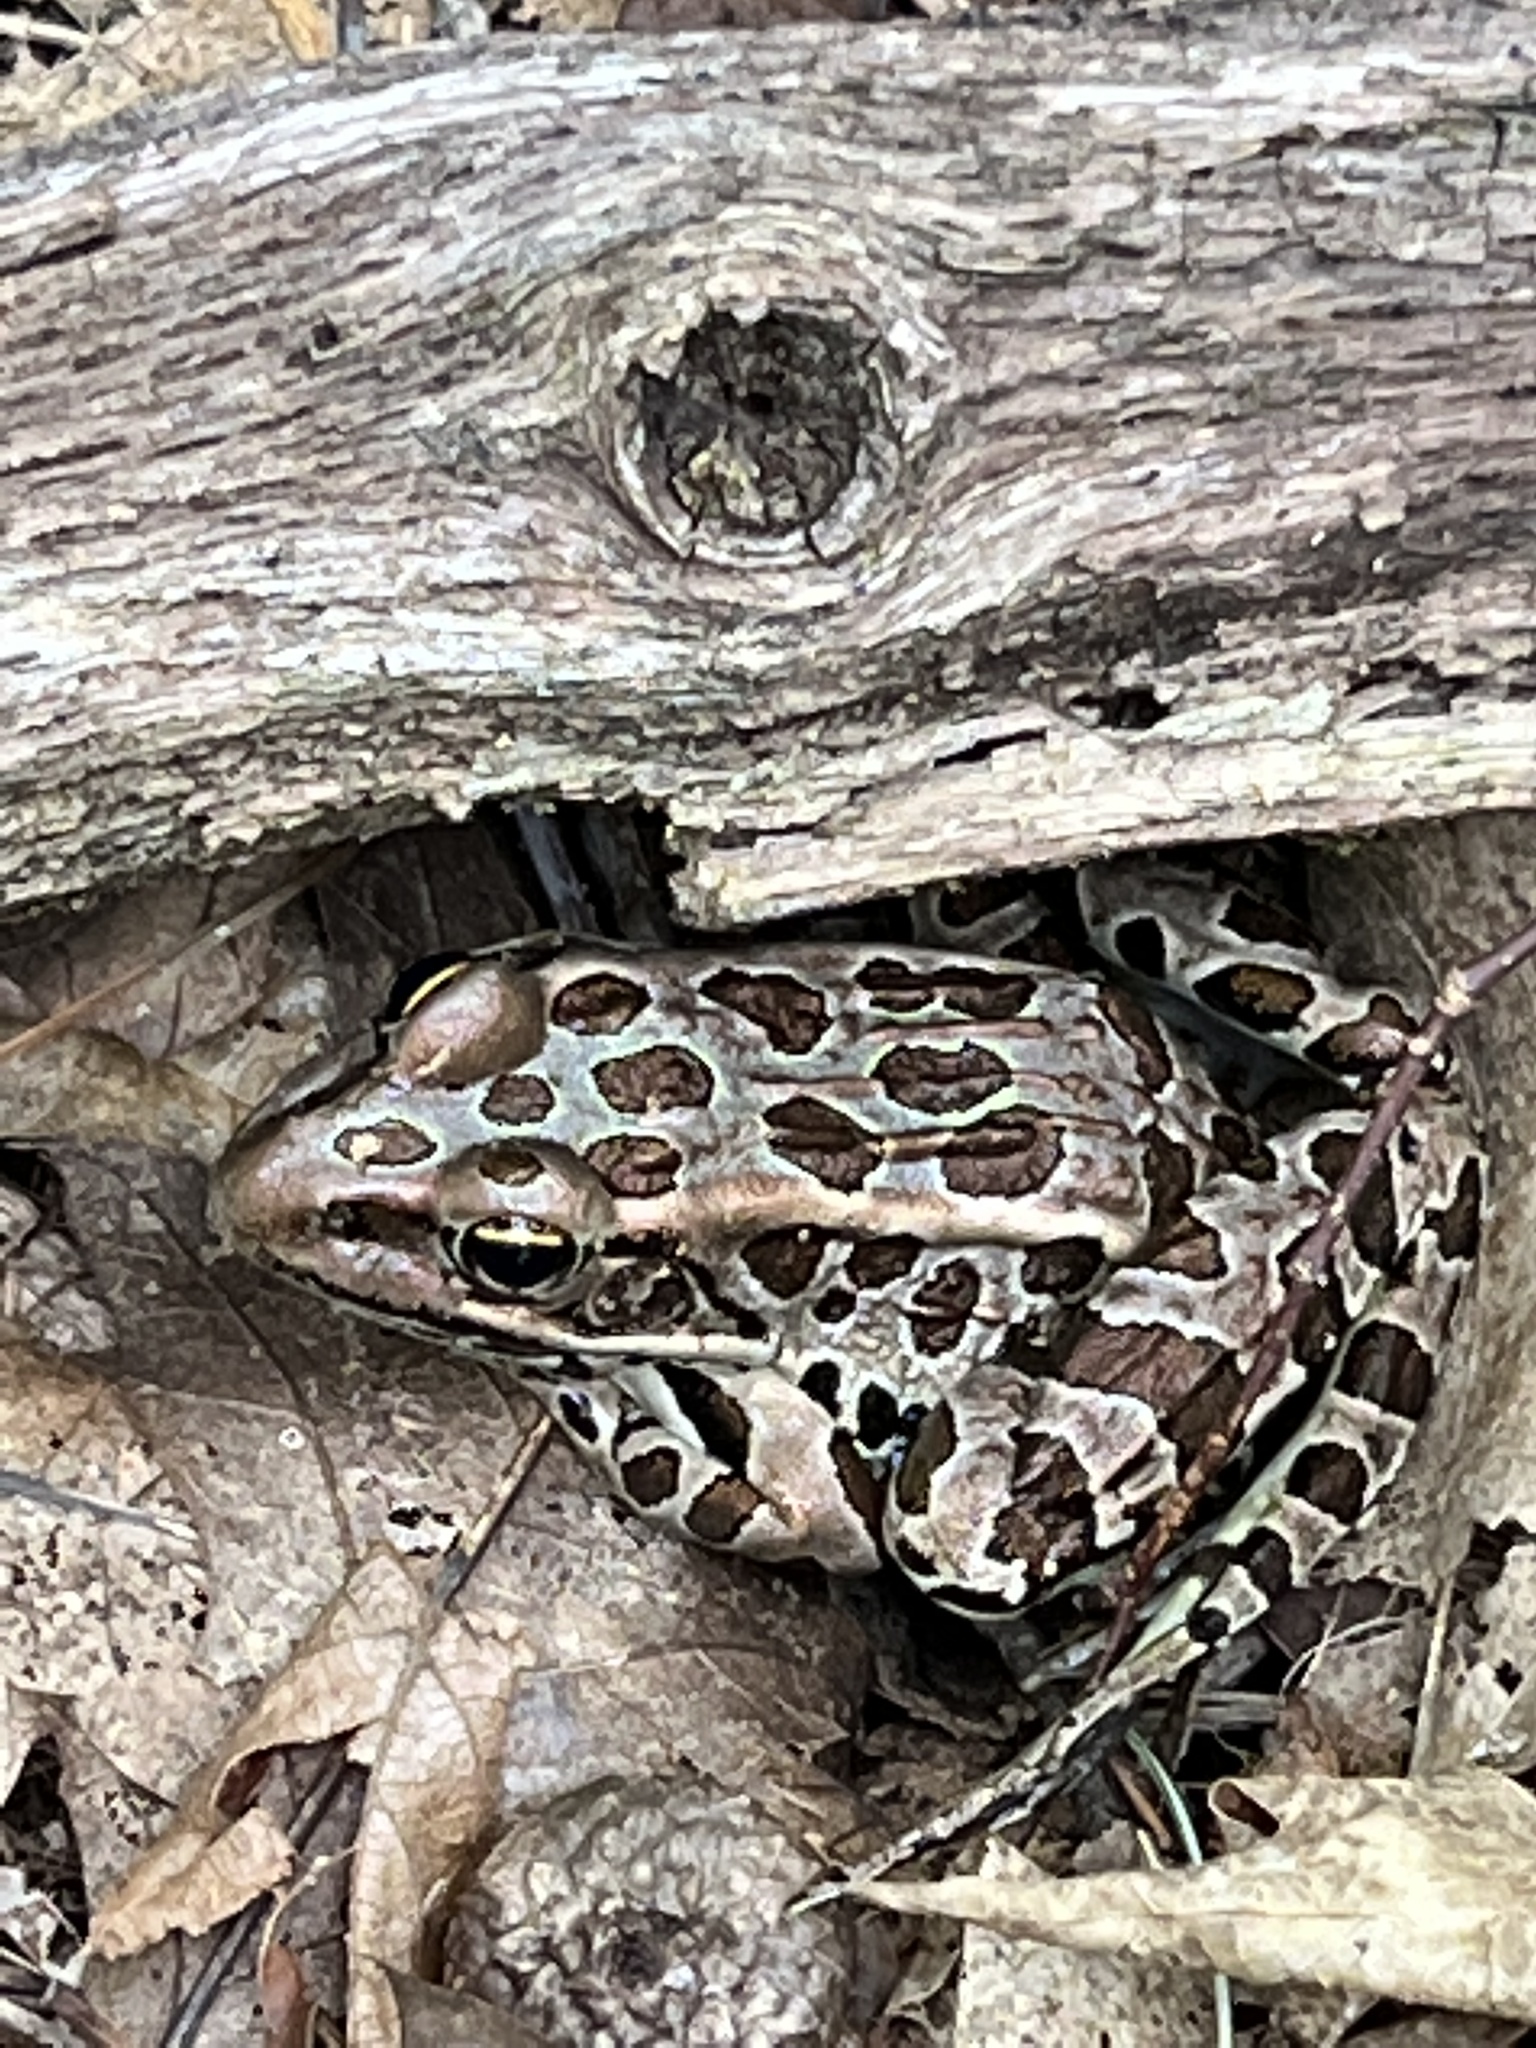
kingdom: Animalia
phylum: Chordata
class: Amphibia
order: Anura
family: Ranidae
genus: Lithobates
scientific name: Lithobates pipiens
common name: Northern leopard frog
